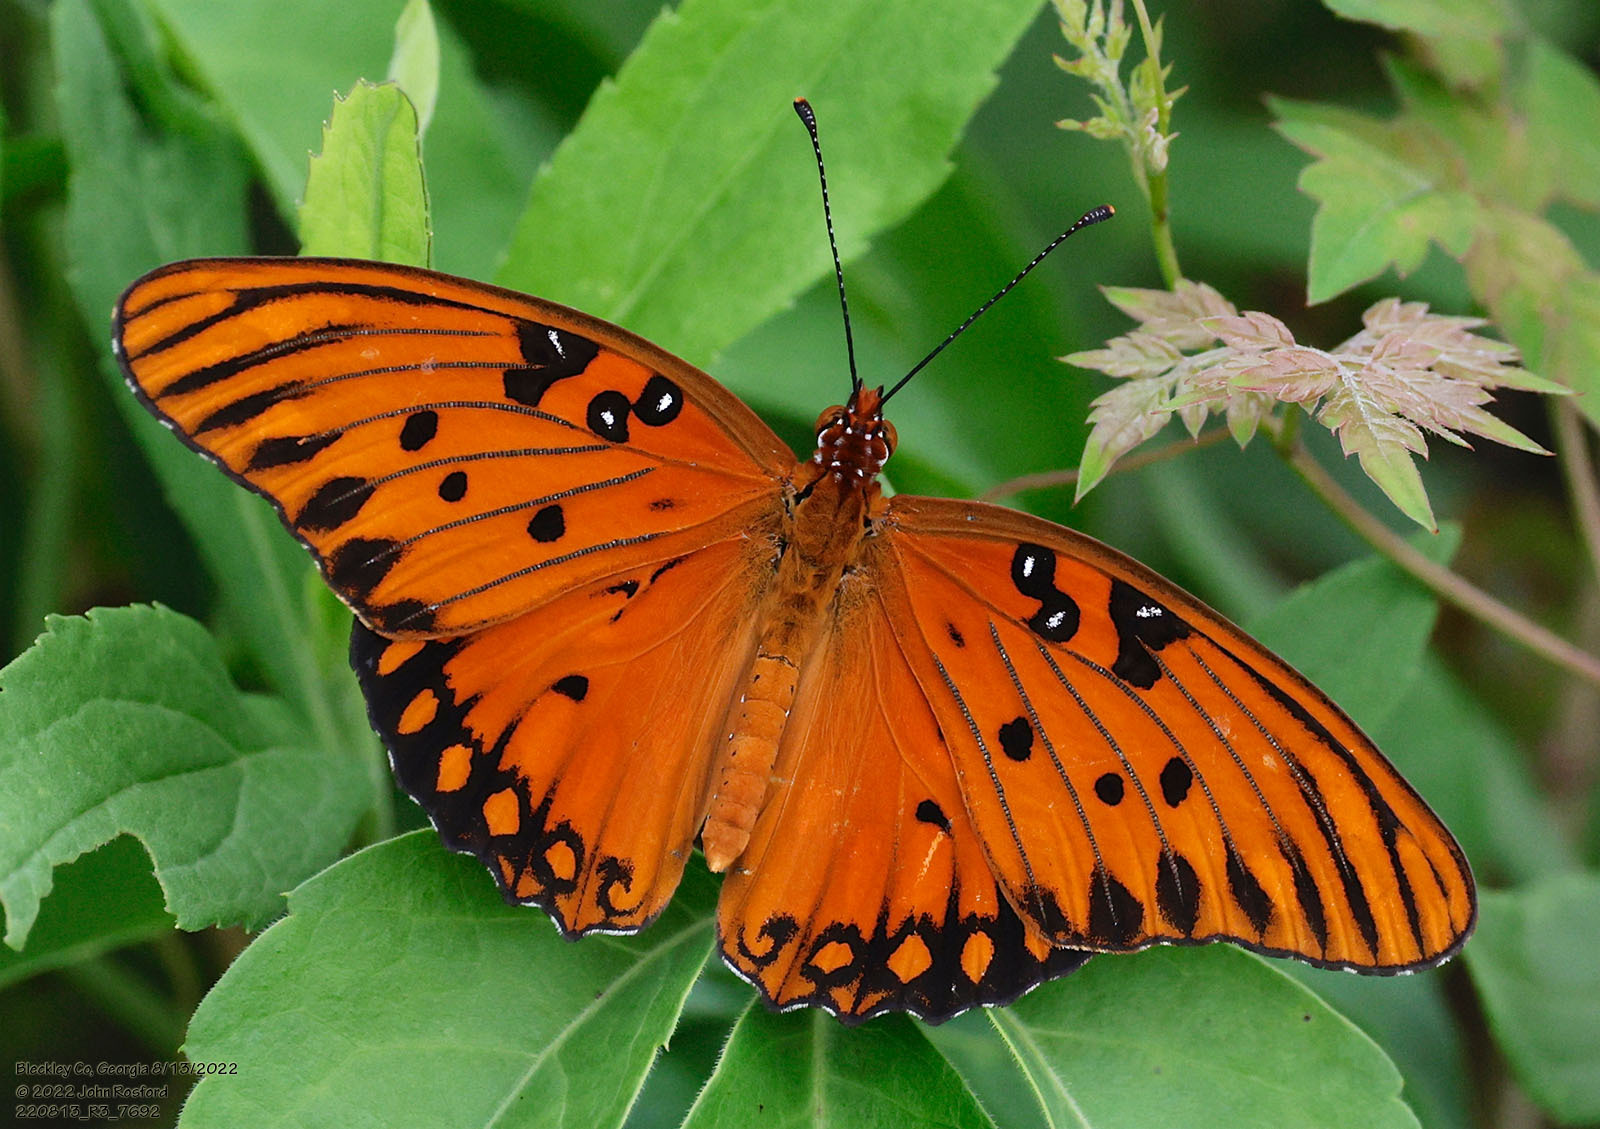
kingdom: Animalia
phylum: Arthropoda
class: Insecta
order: Lepidoptera
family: Nymphalidae
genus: Dione
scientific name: Dione vanillae
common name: Gulf fritillary
